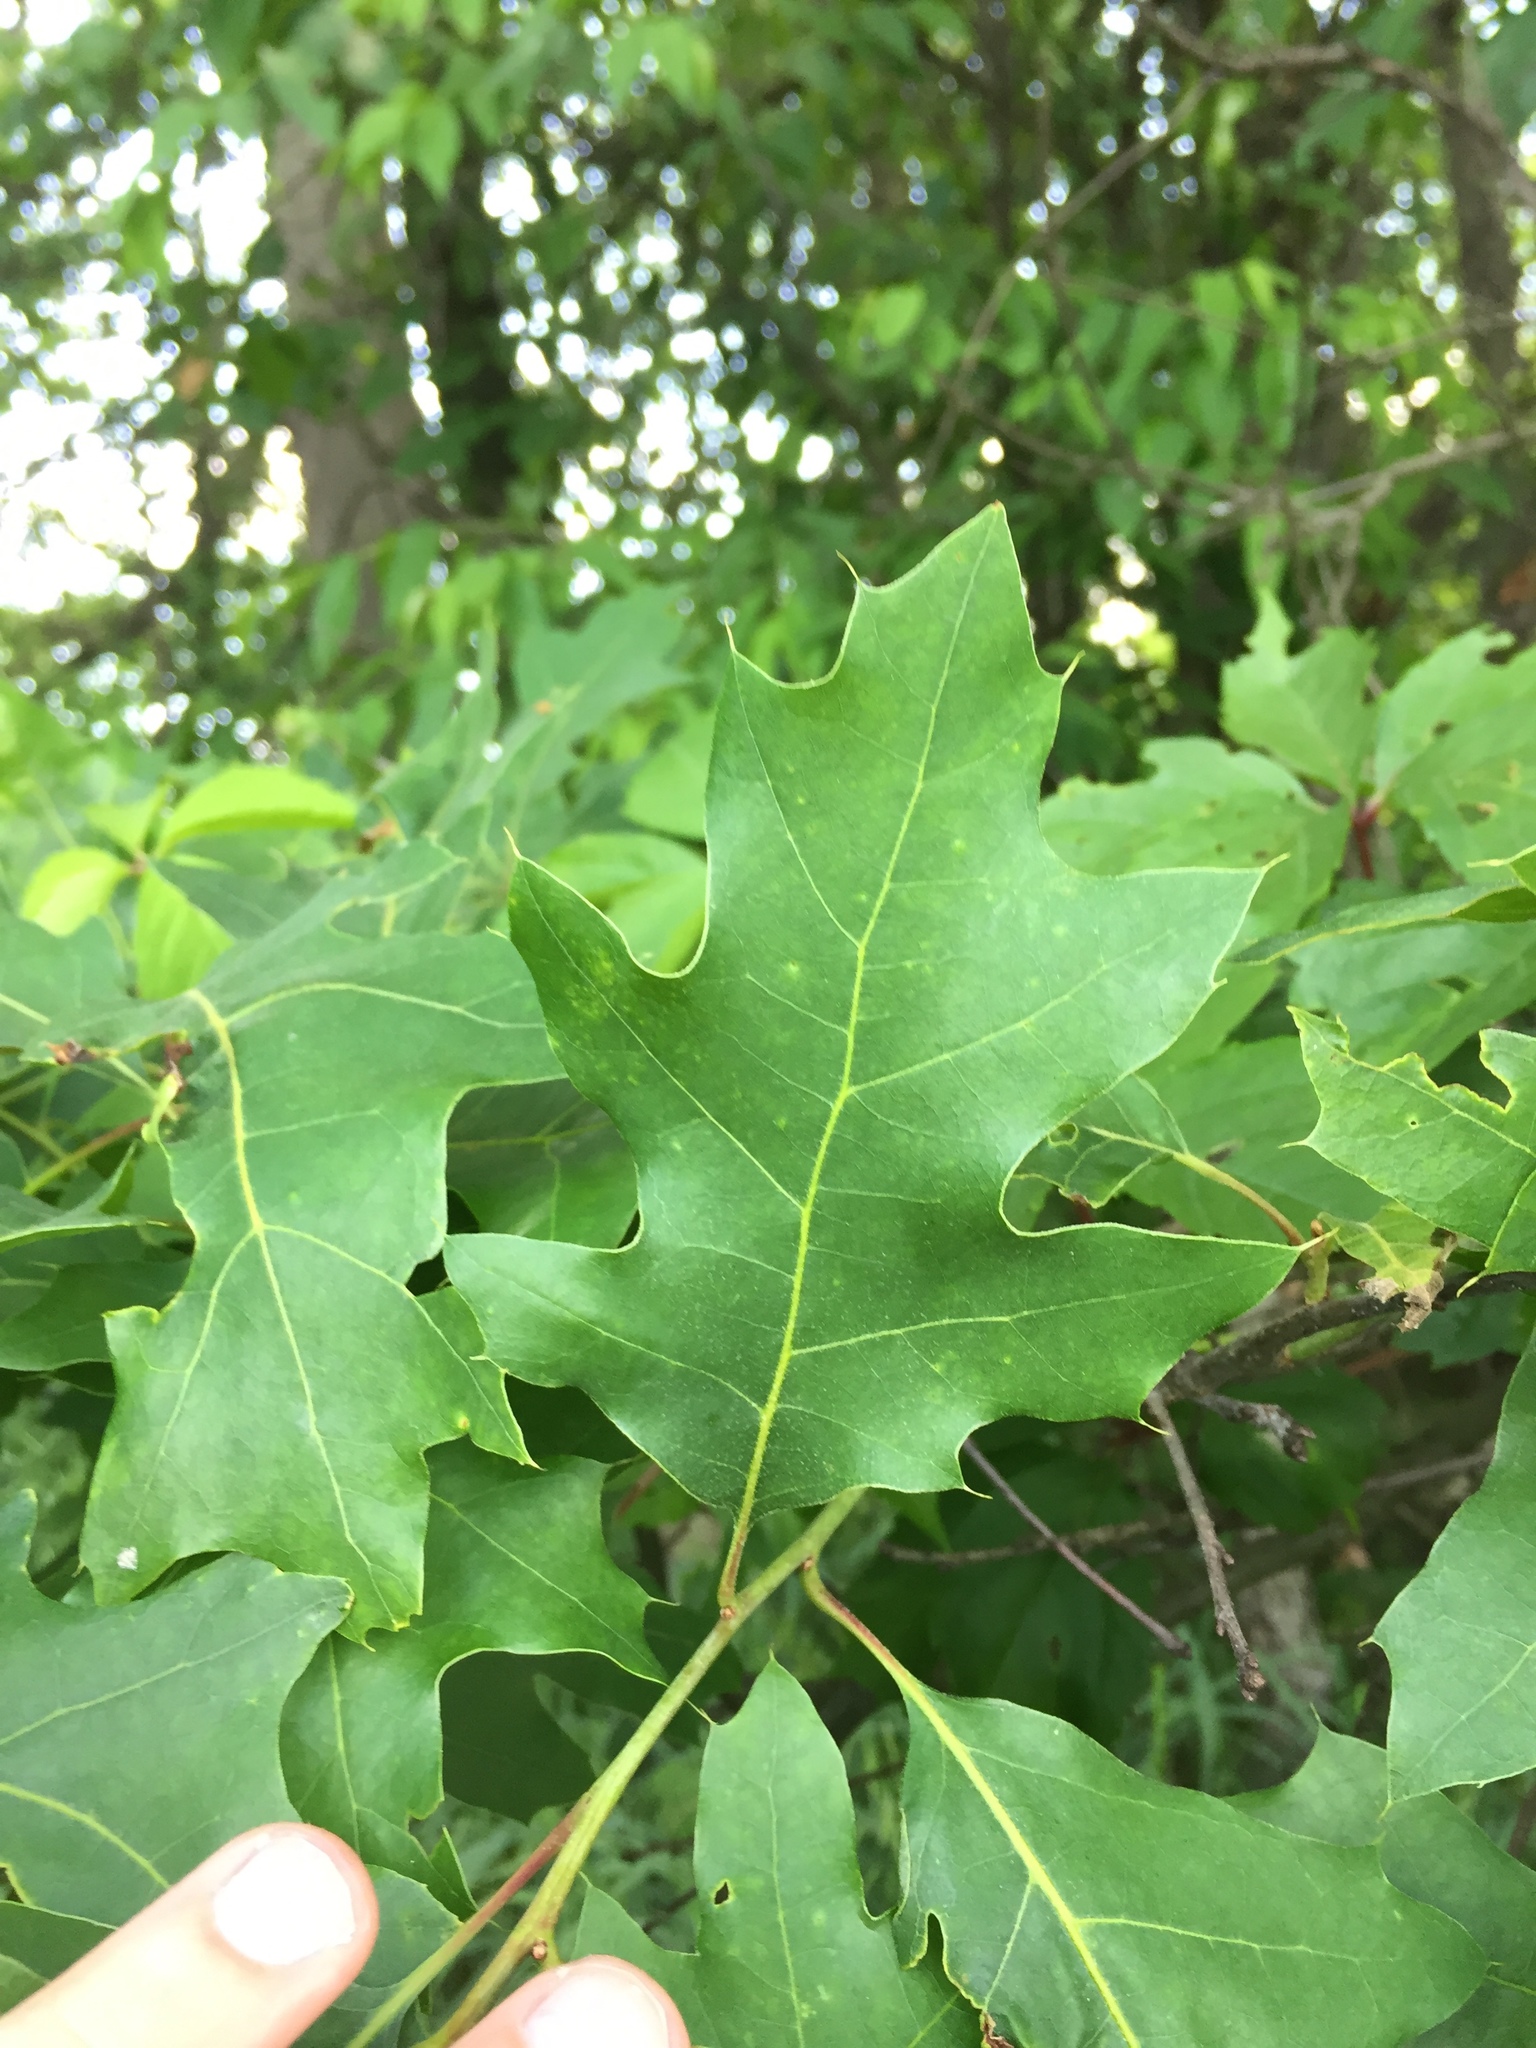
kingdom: Plantae
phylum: Tracheophyta
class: Magnoliopsida
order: Fagales
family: Fagaceae
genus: Quercus
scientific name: Quercus rubra
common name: Red oak
